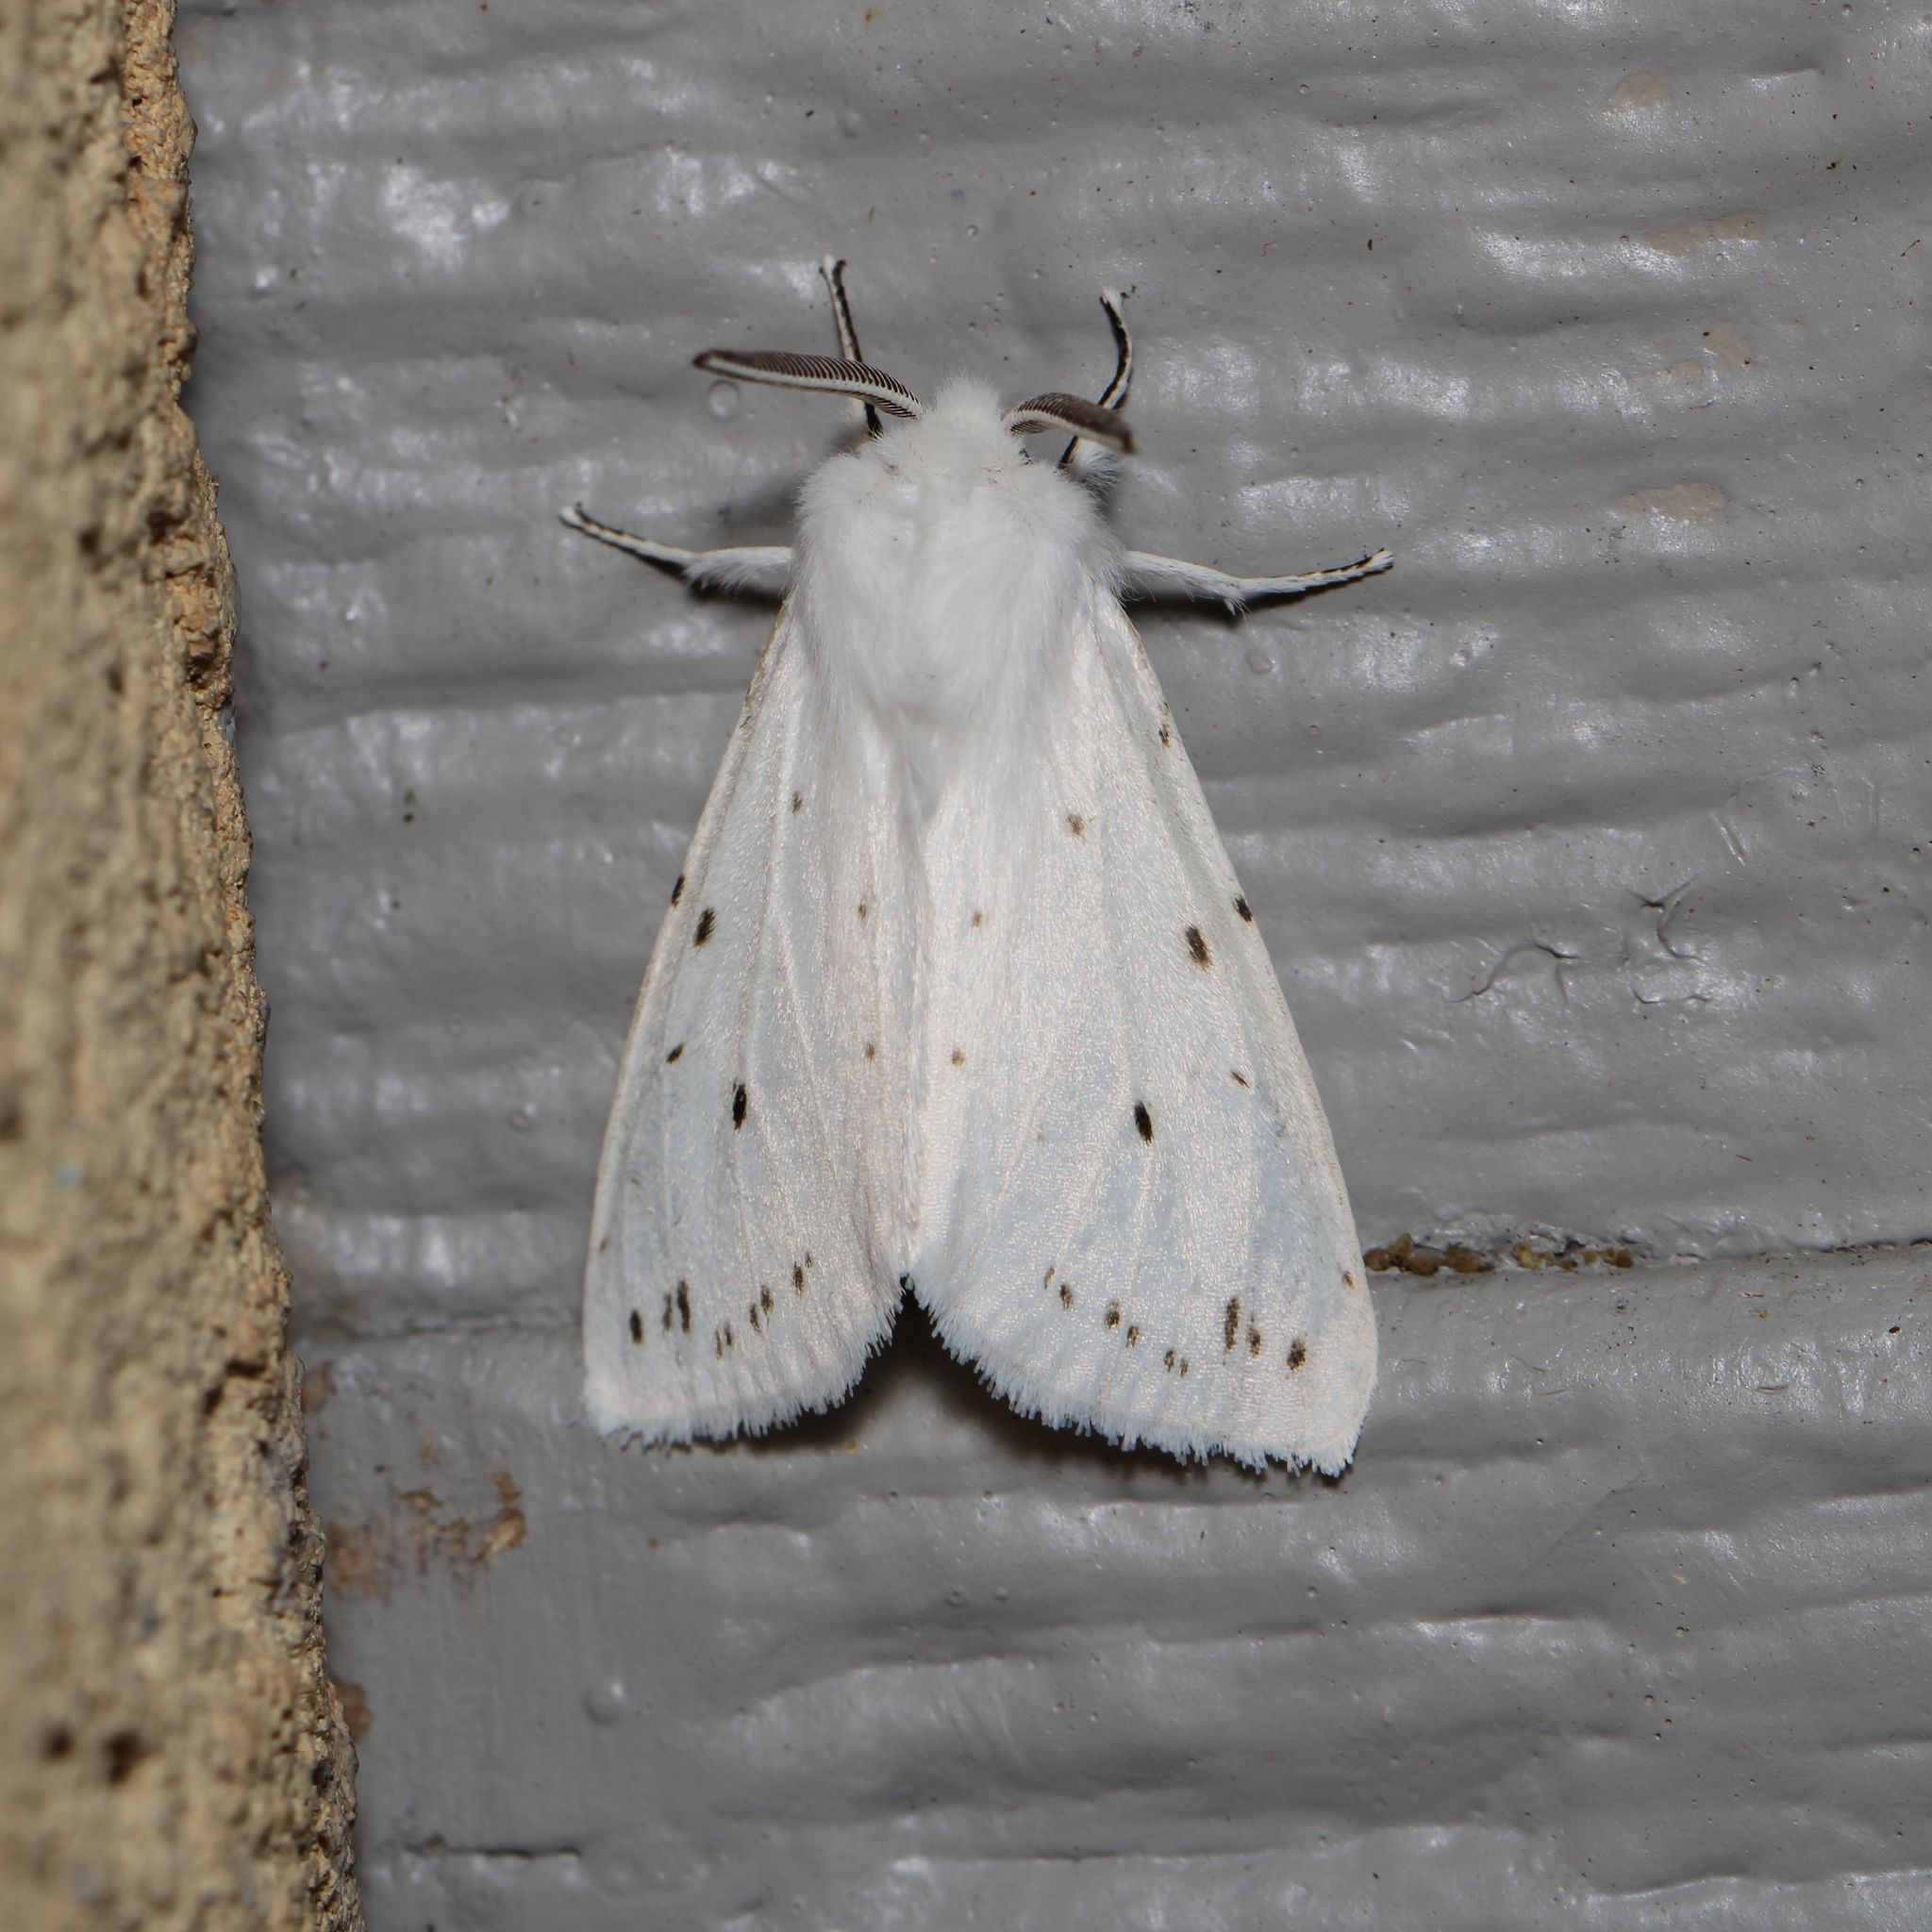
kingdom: Animalia
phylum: Arthropoda
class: Insecta
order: Lepidoptera
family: Erebidae
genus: Spilosoma
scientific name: Spilosoma congrua
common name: Agreeable tiger moth
